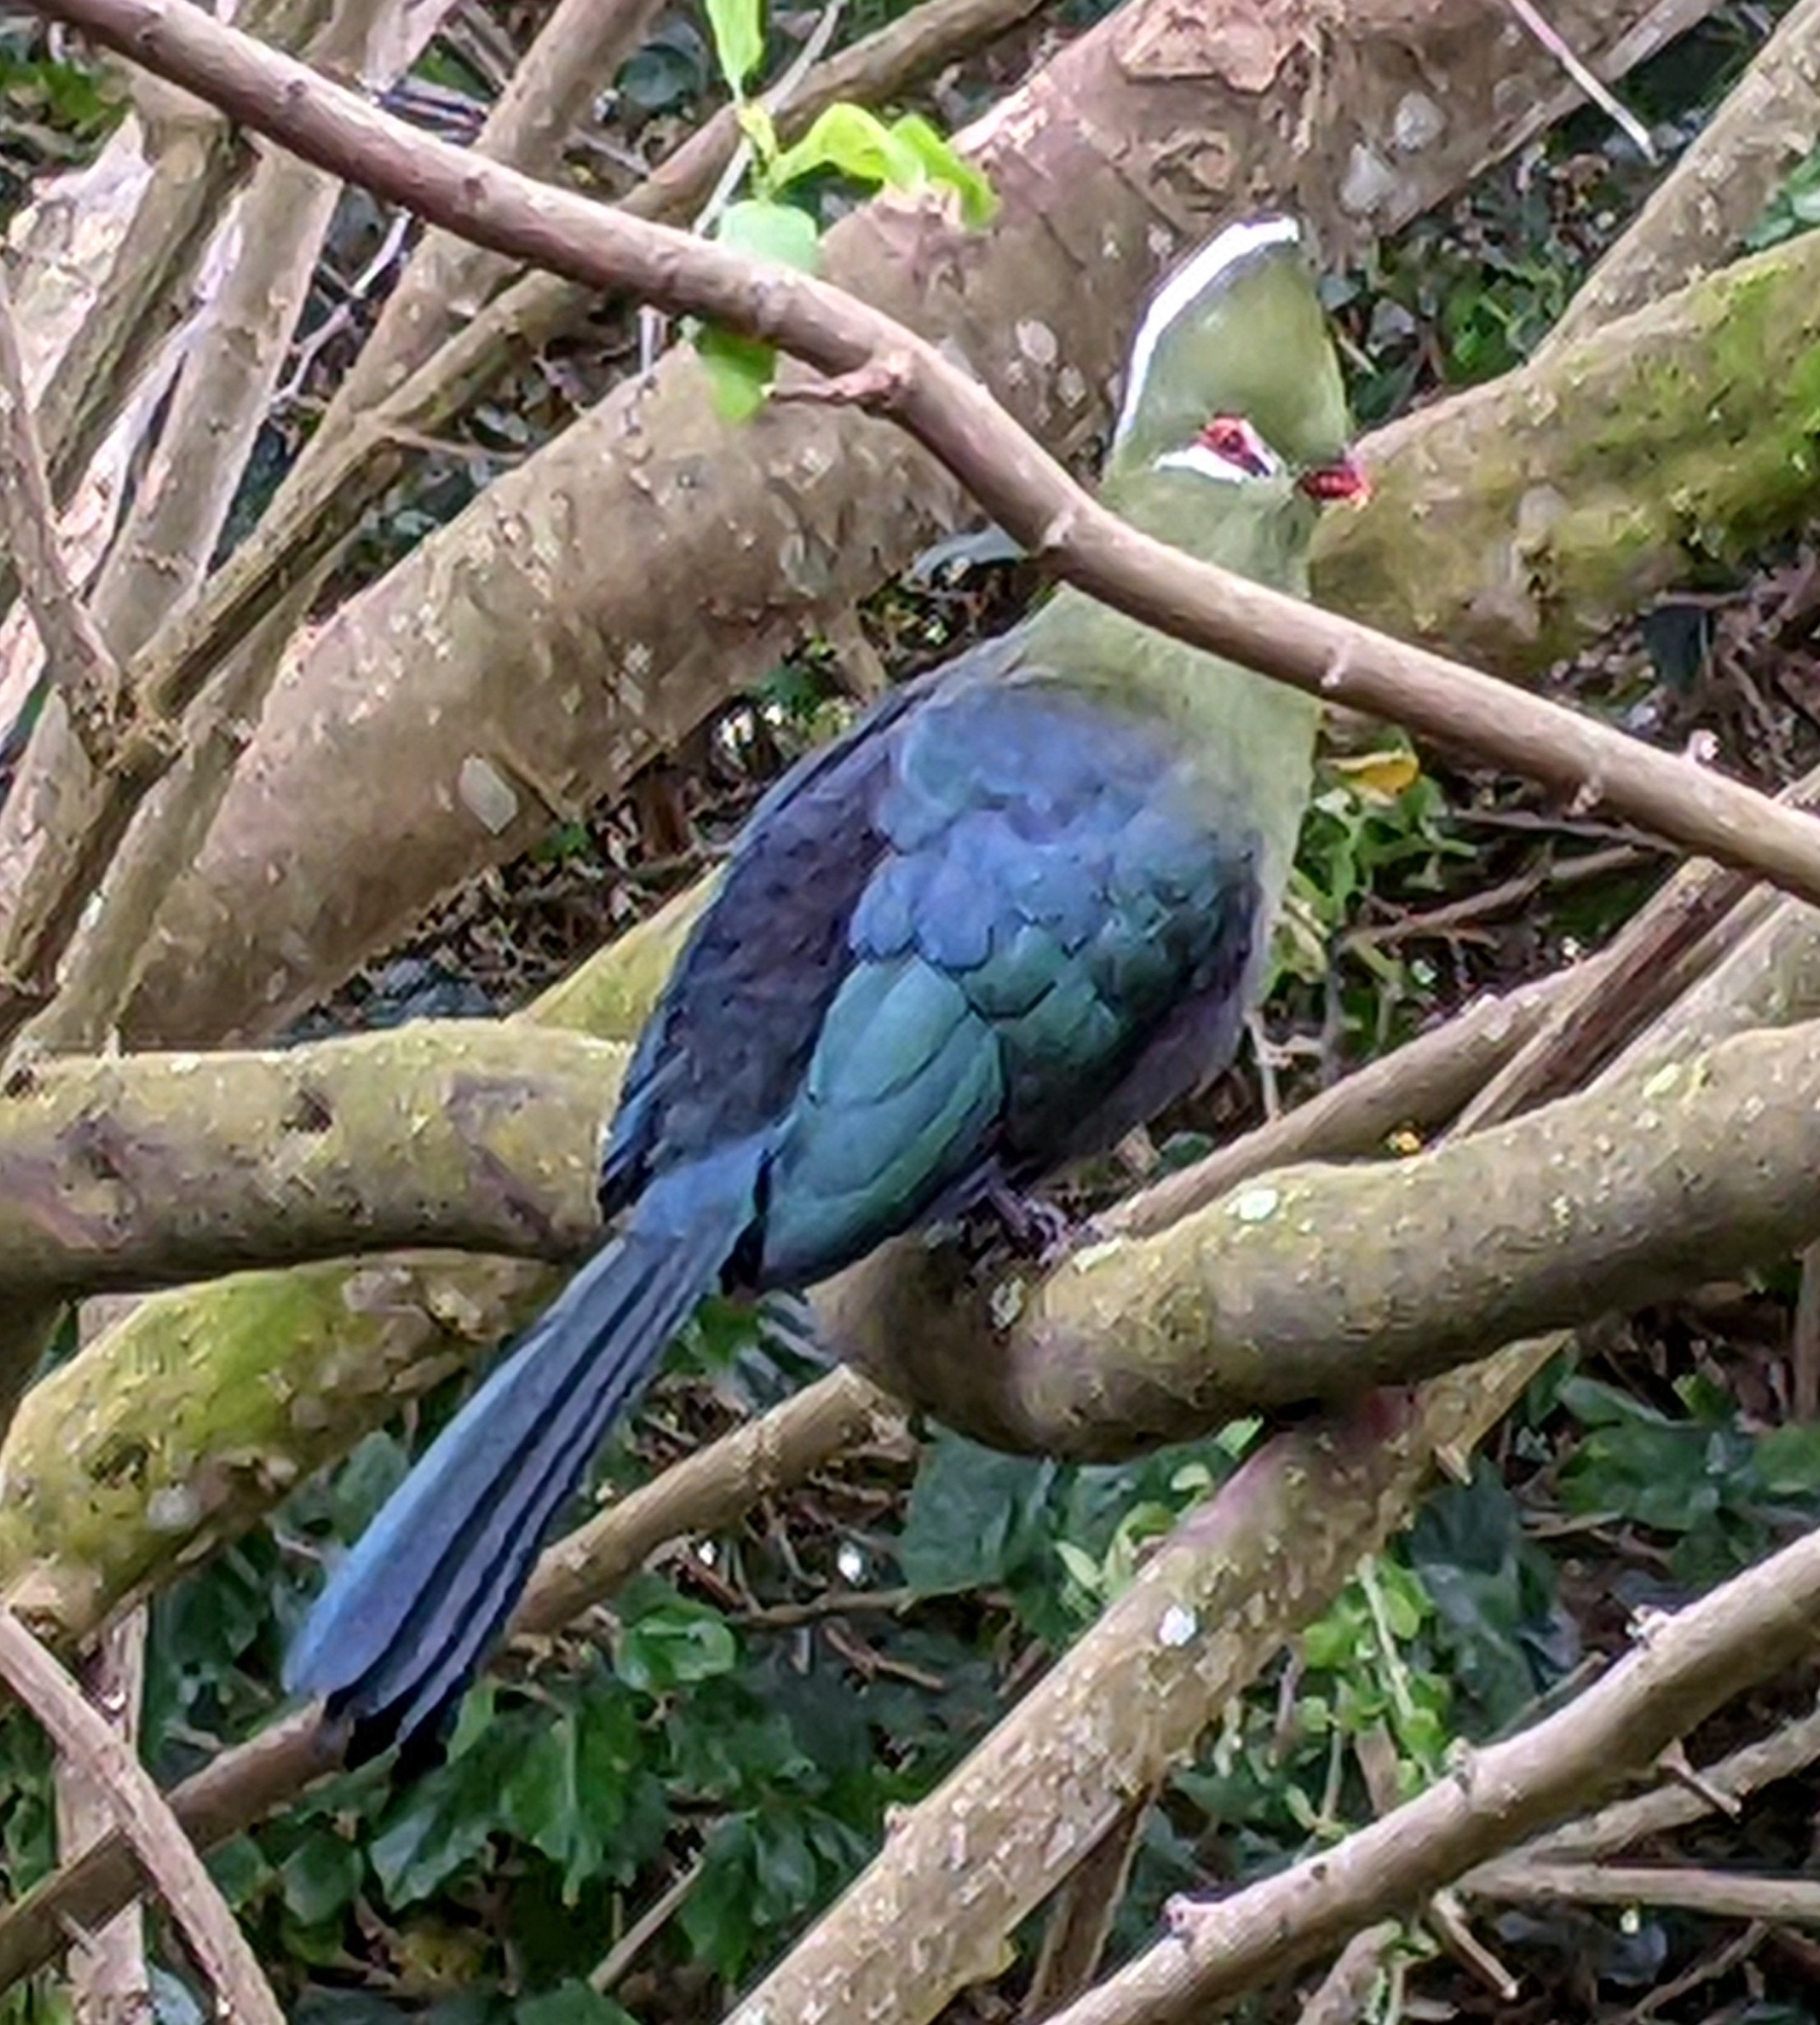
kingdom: Animalia
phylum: Chordata
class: Aves
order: Musophagiformes
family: Musophagidae
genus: Tauraco
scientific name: Tauraco corythaix
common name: Knysna turaco
